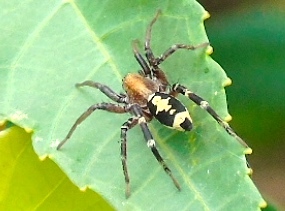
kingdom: Animalia
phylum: Arthropoda
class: Arachnida
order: Araneae
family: Corinnidae
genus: Castianeira
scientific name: Castianeira
